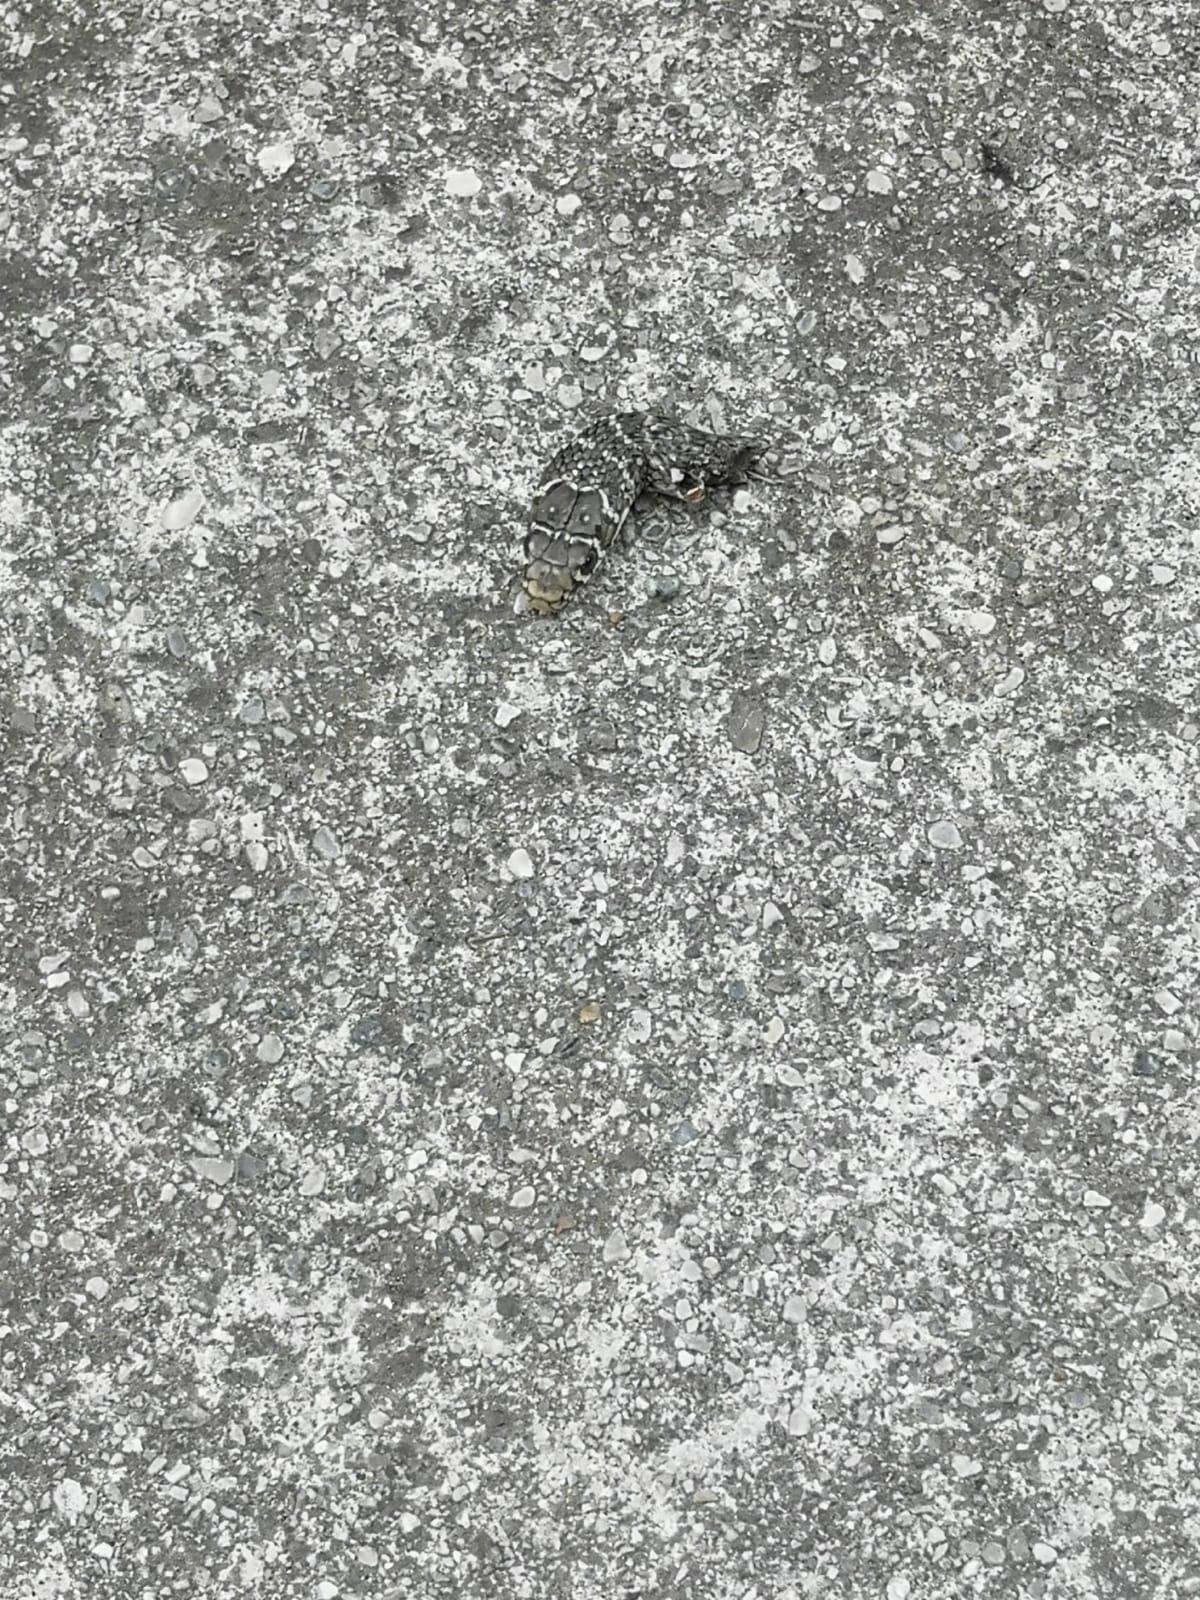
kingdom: Animalia
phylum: Chordata
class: Squamata
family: Colubridae
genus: Hierophis
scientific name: Hierophis viridiflavus
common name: Green whip snake
